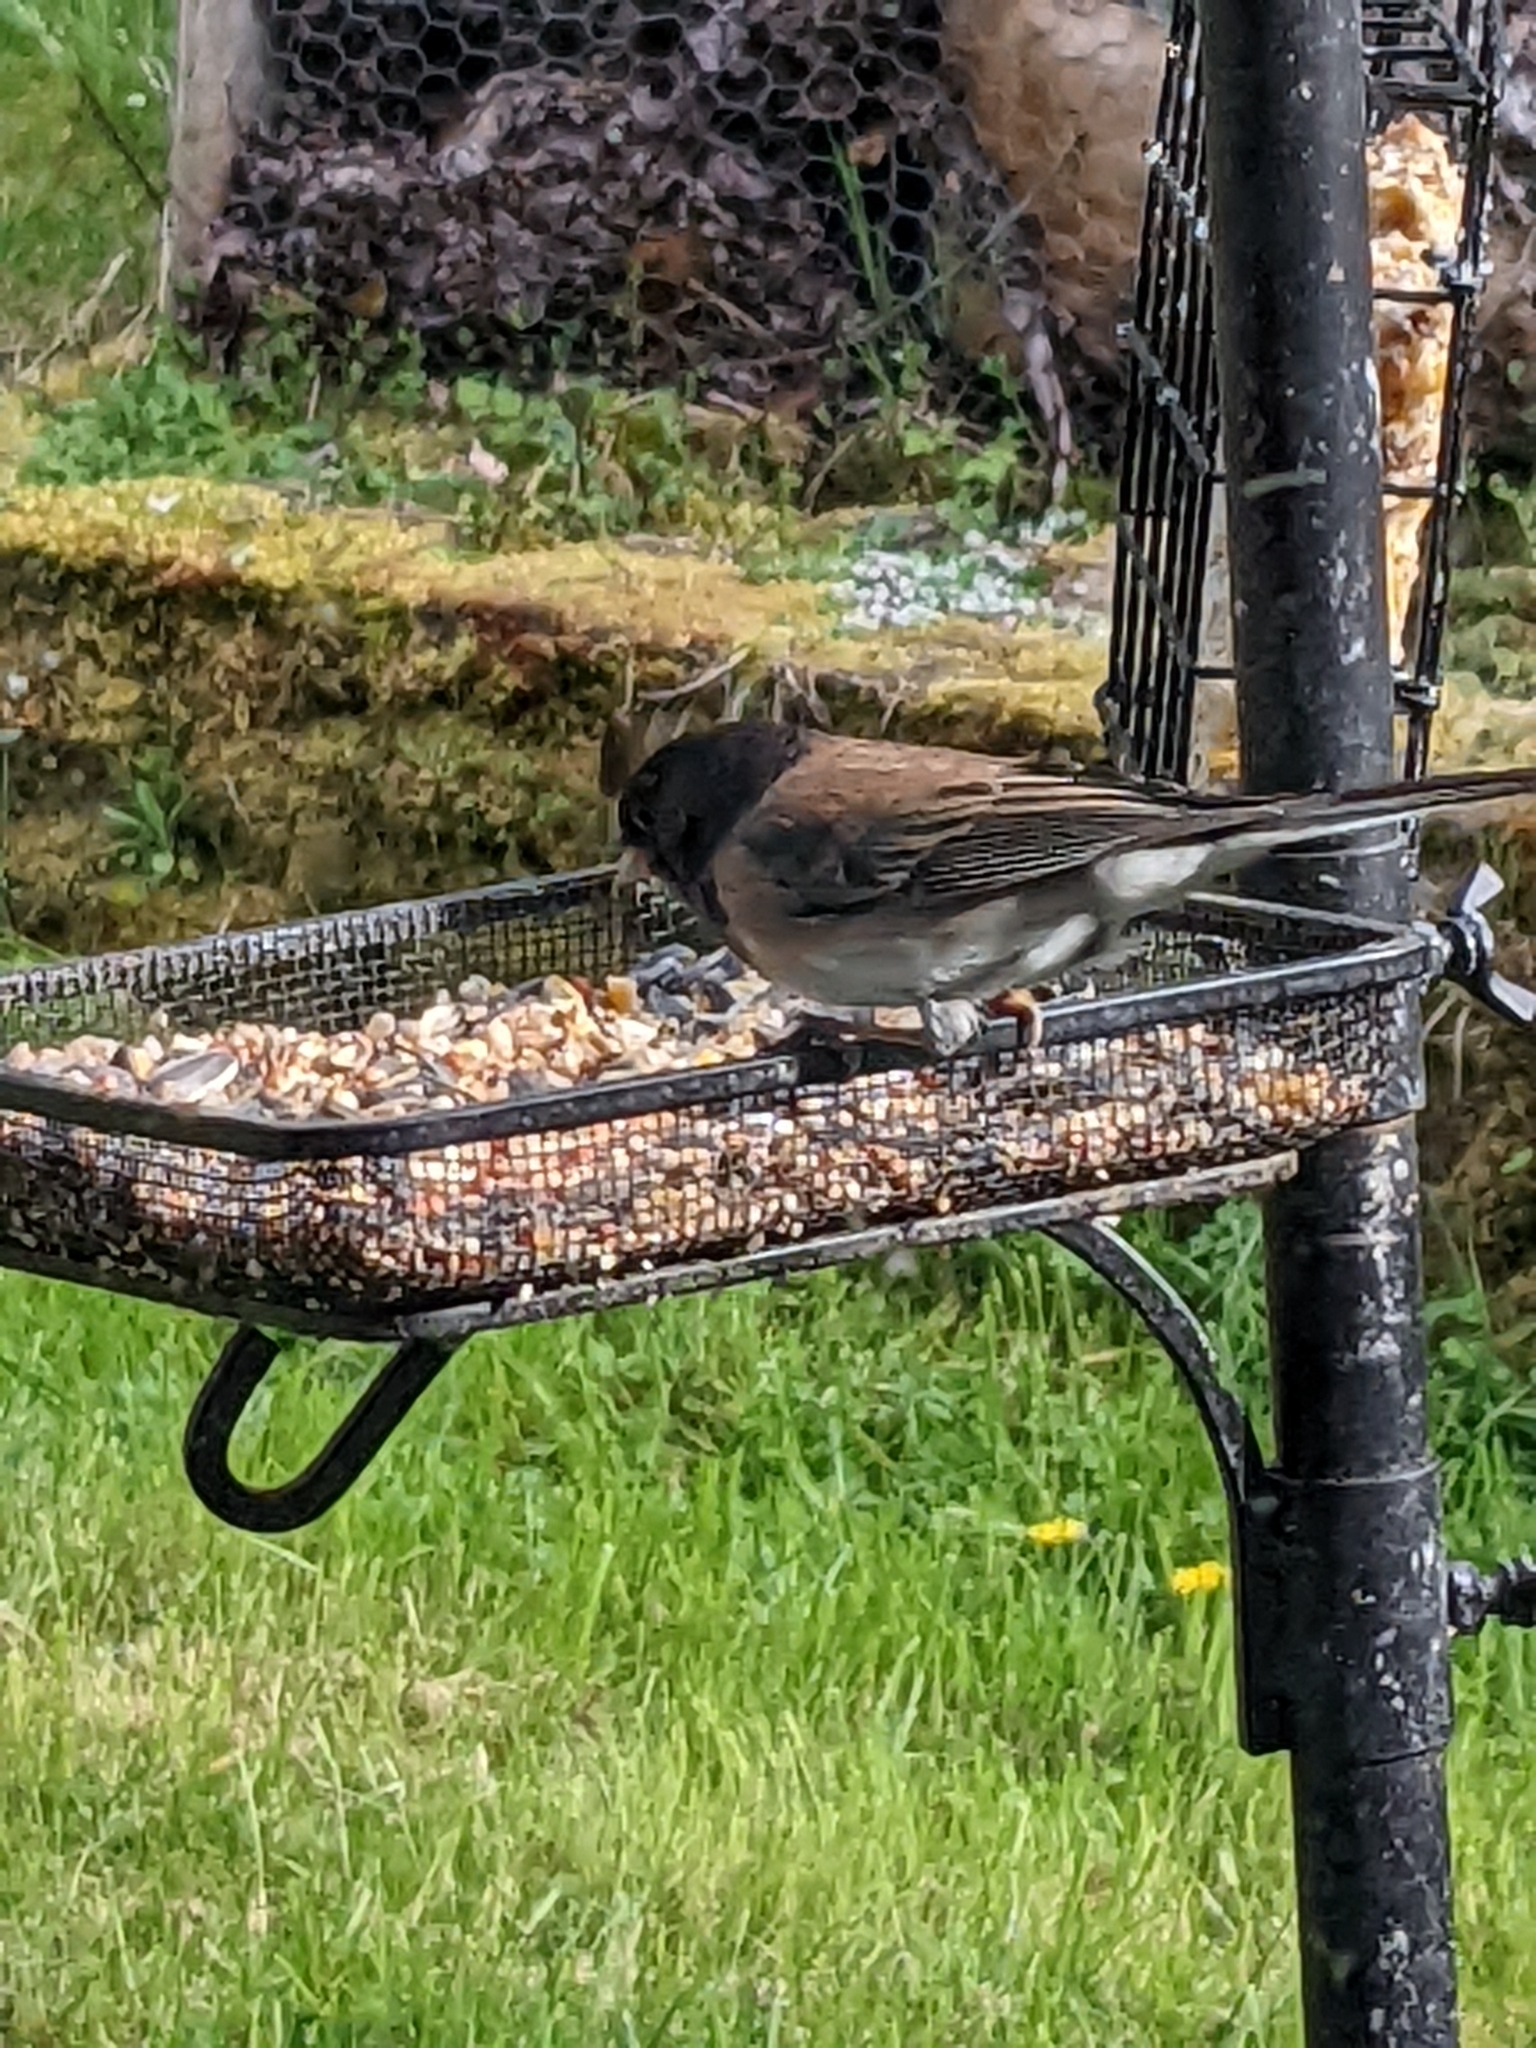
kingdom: Animalia
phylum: Chordata
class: Aves
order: Passeriformes
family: Passerellidae
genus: Junco
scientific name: Junco hyemalis
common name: Dark-eyed junco
